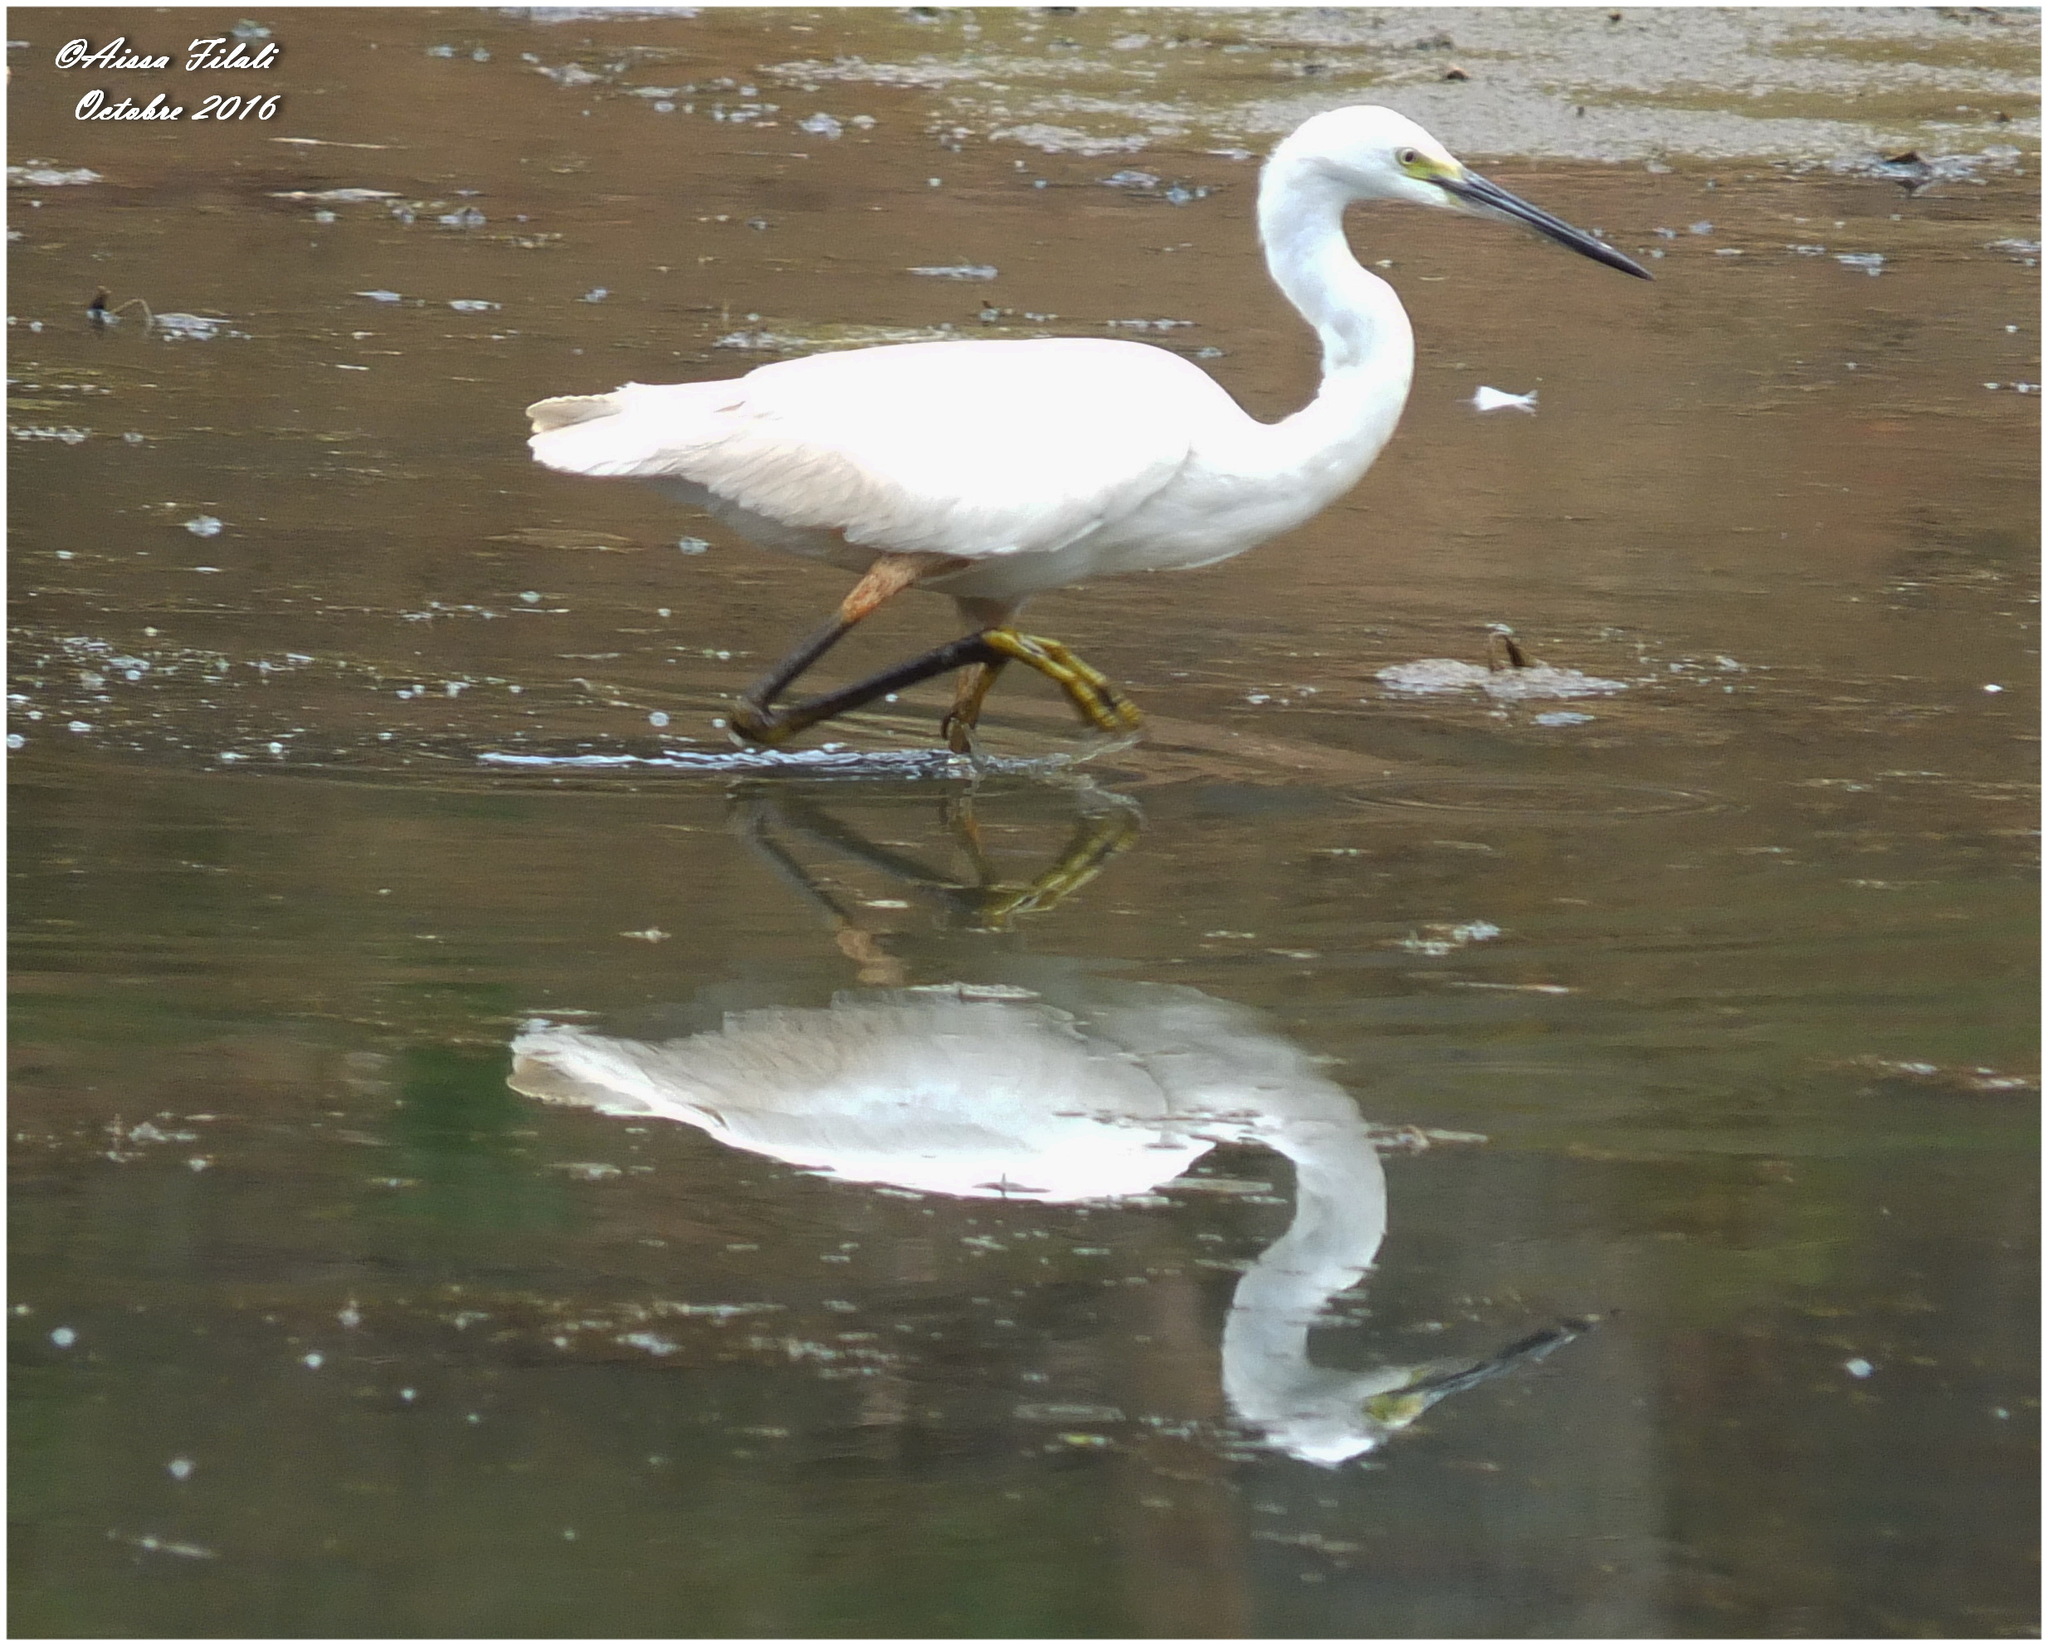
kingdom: Animalia
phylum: Chordata
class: Aves
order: Pelecaniformes
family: Ardeidae
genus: Egretta
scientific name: Egretta garzetta
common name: Little egret
